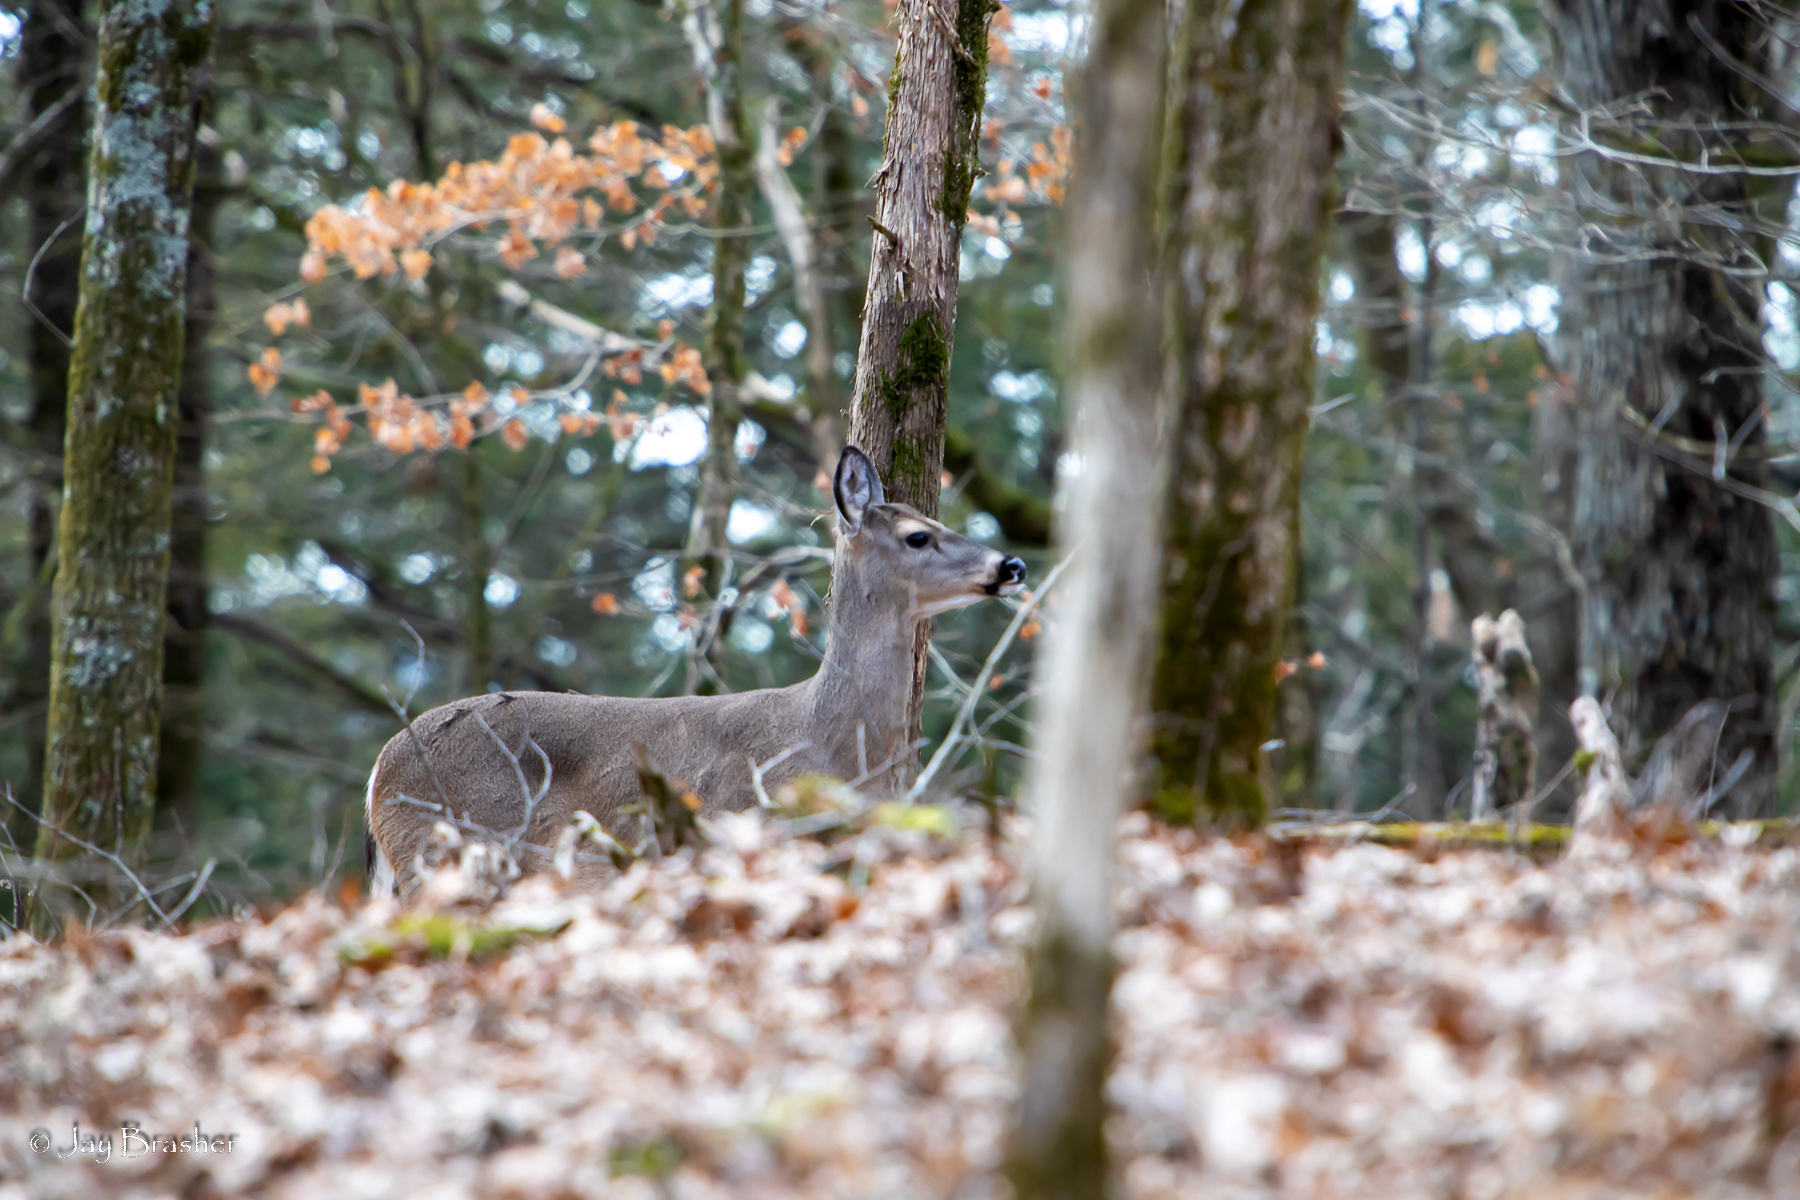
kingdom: Animalia
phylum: Chordata
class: Mammalia
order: Artiodactyla
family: Cervidae
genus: Odocoileus
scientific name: Odocoileus virginianus
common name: White-tailed deer
